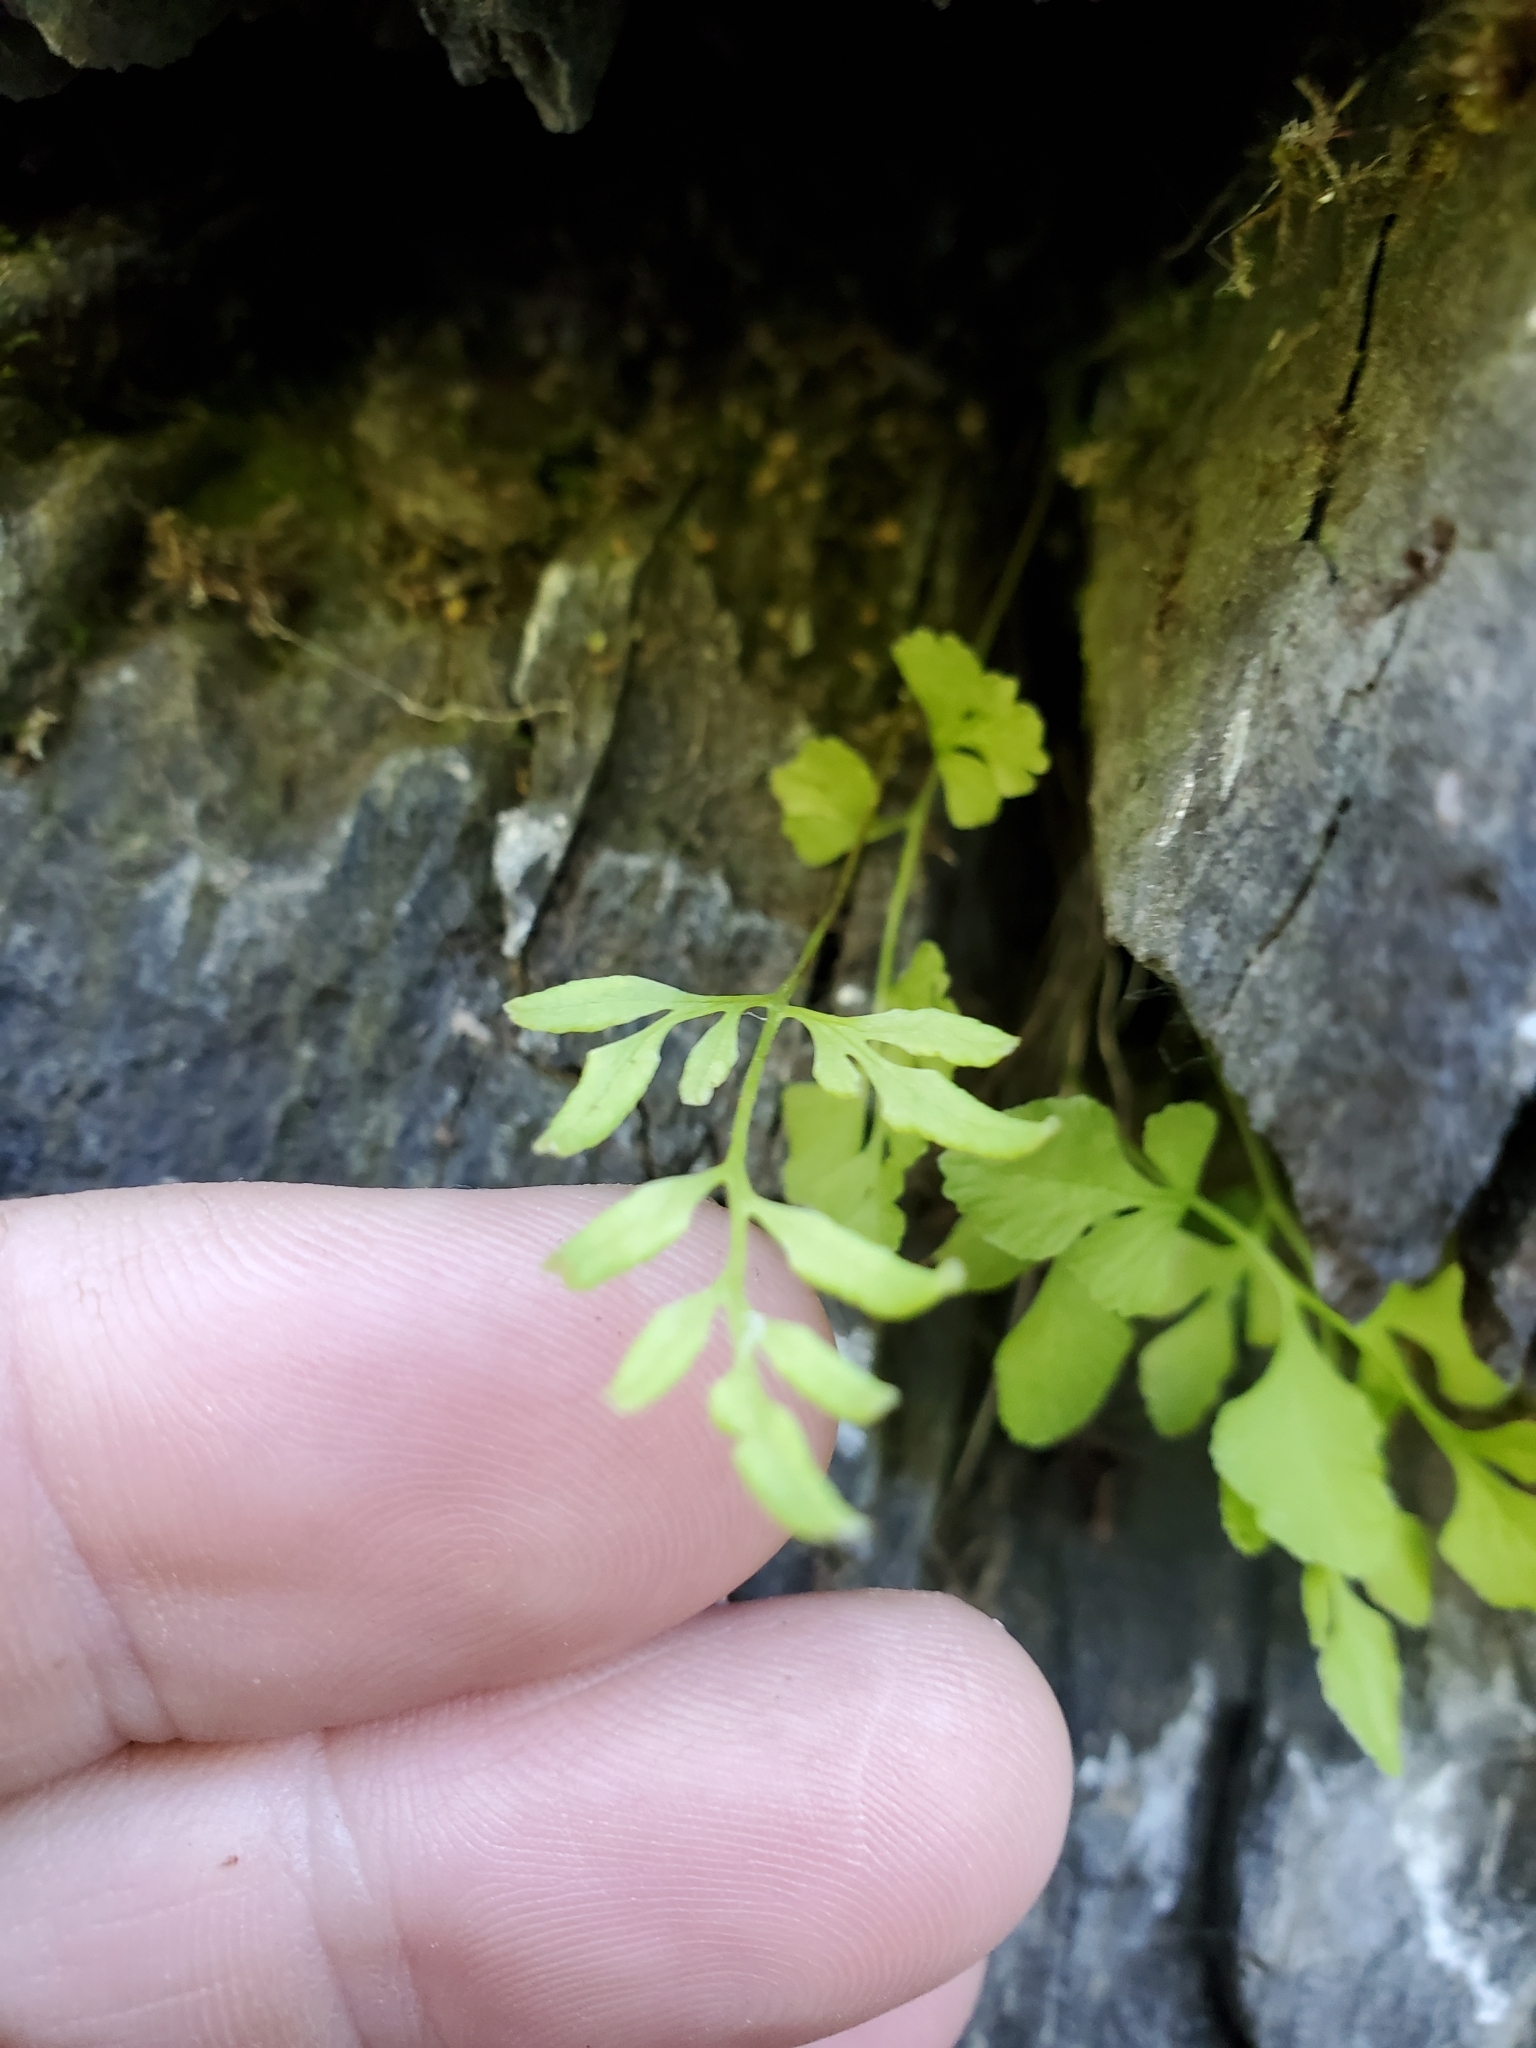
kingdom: Plantae
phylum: Tracheophyta
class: Polypodiopsida
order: Polypodiales
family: Pteridaceae
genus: Cryptogramma
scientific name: Cryptogramma stelleri
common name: Cliff-brake
